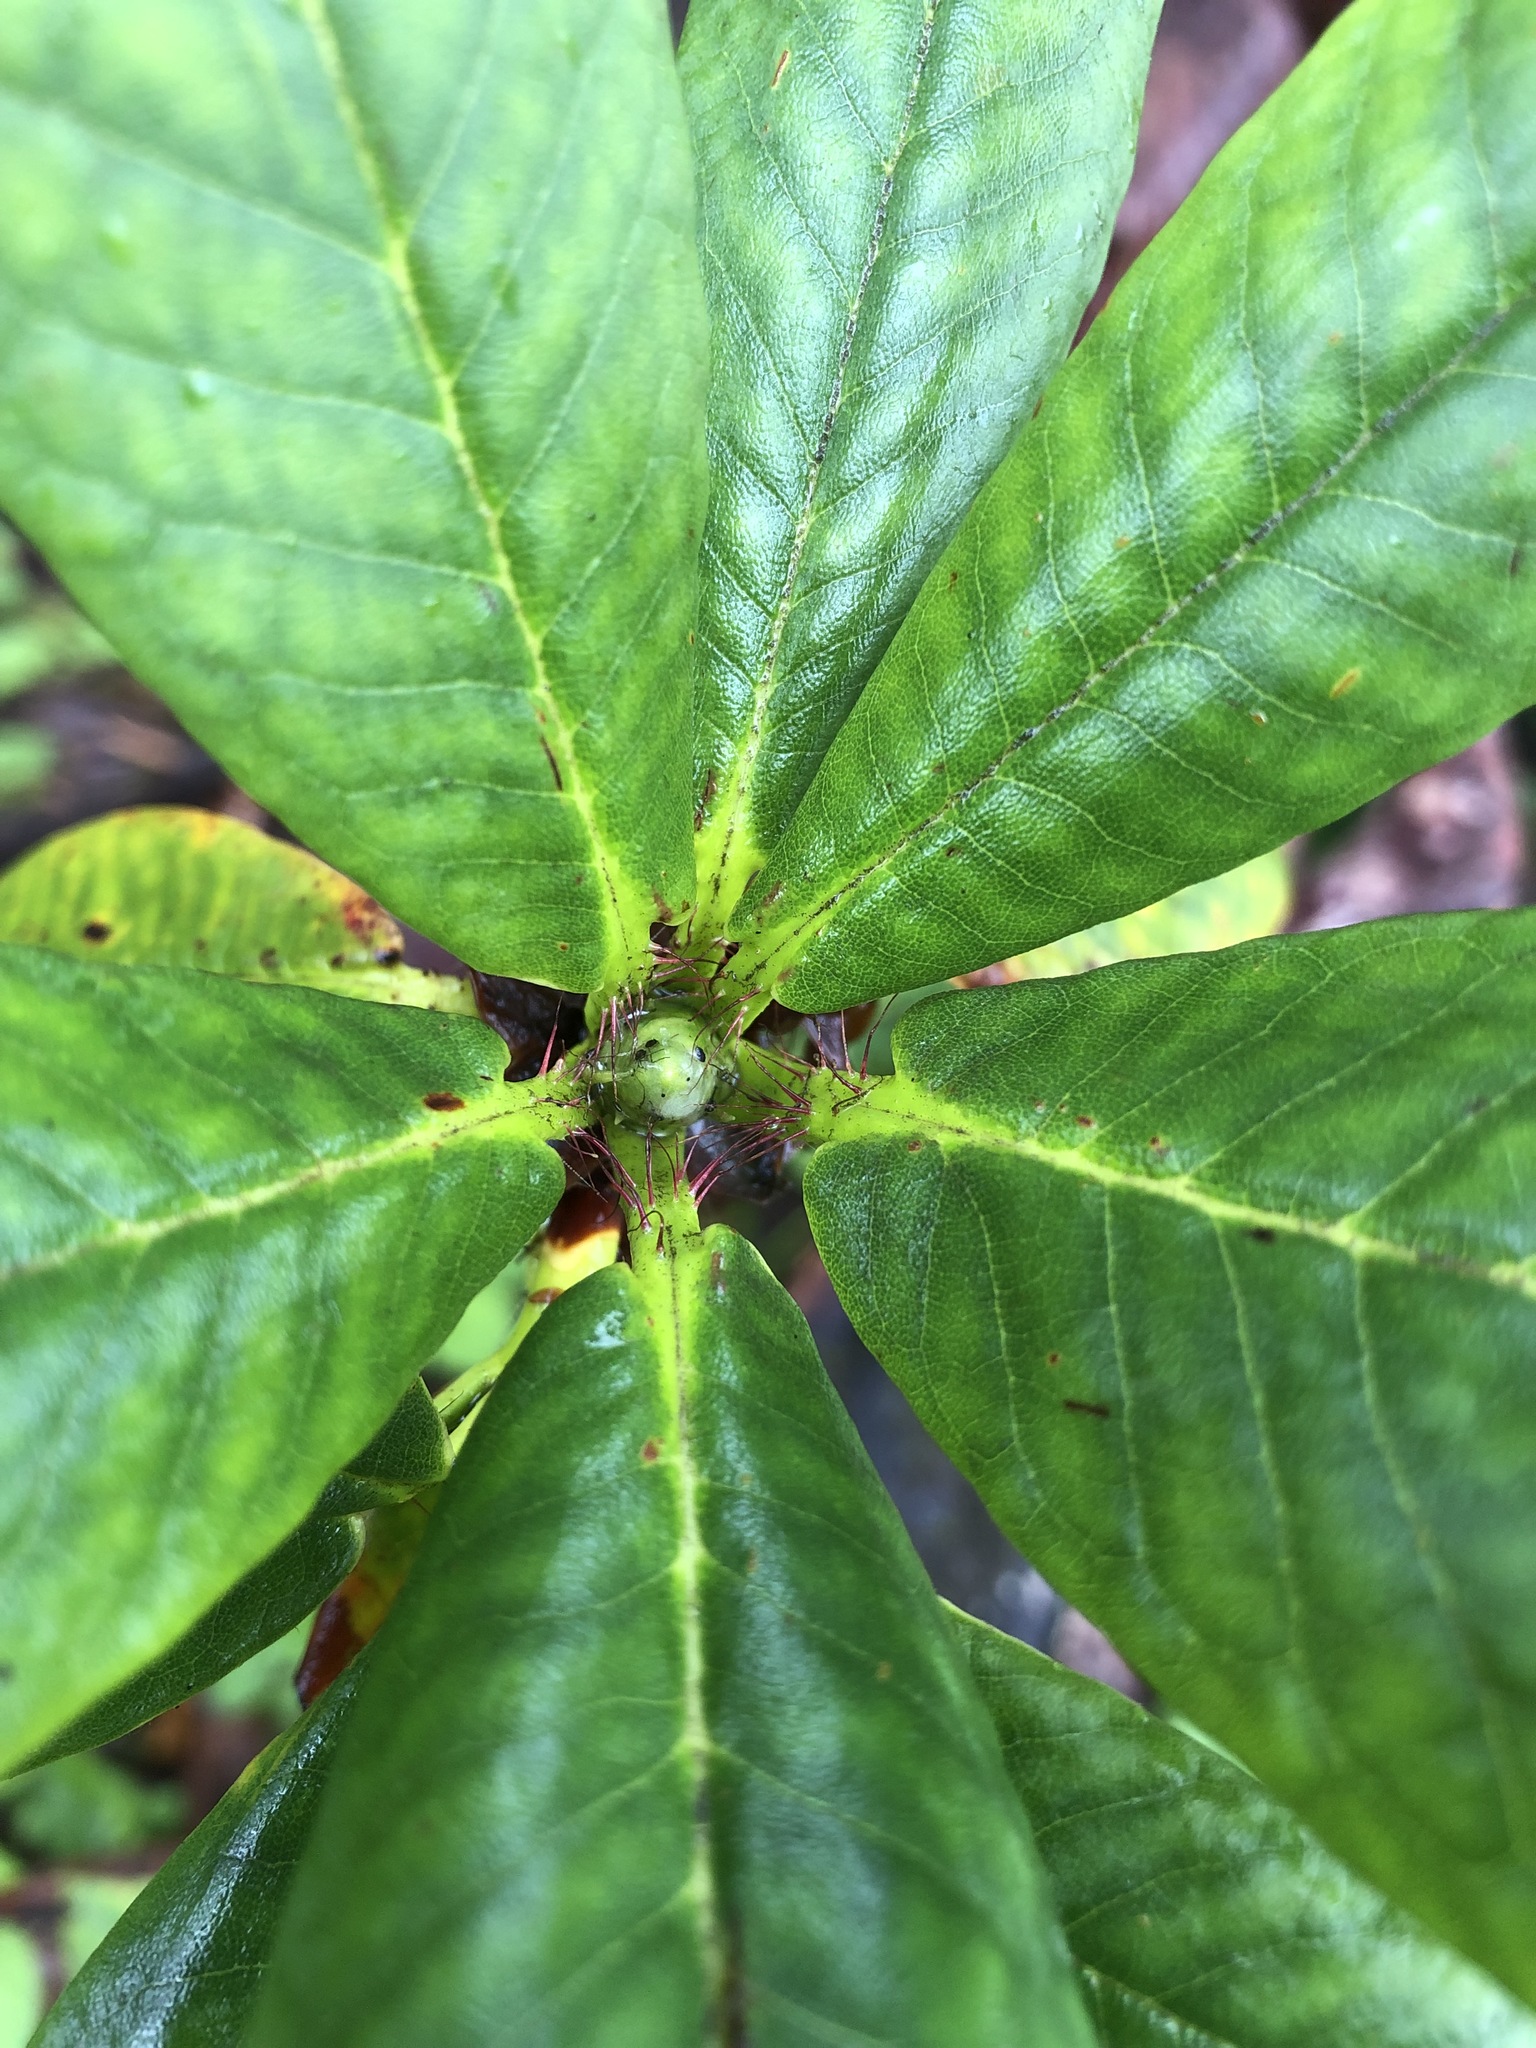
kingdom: Plantae
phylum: Tracheophyta
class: Magnoliopsida
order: Ericales
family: Ericaceae
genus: Rhododendron
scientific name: Rhododendron barbatum
